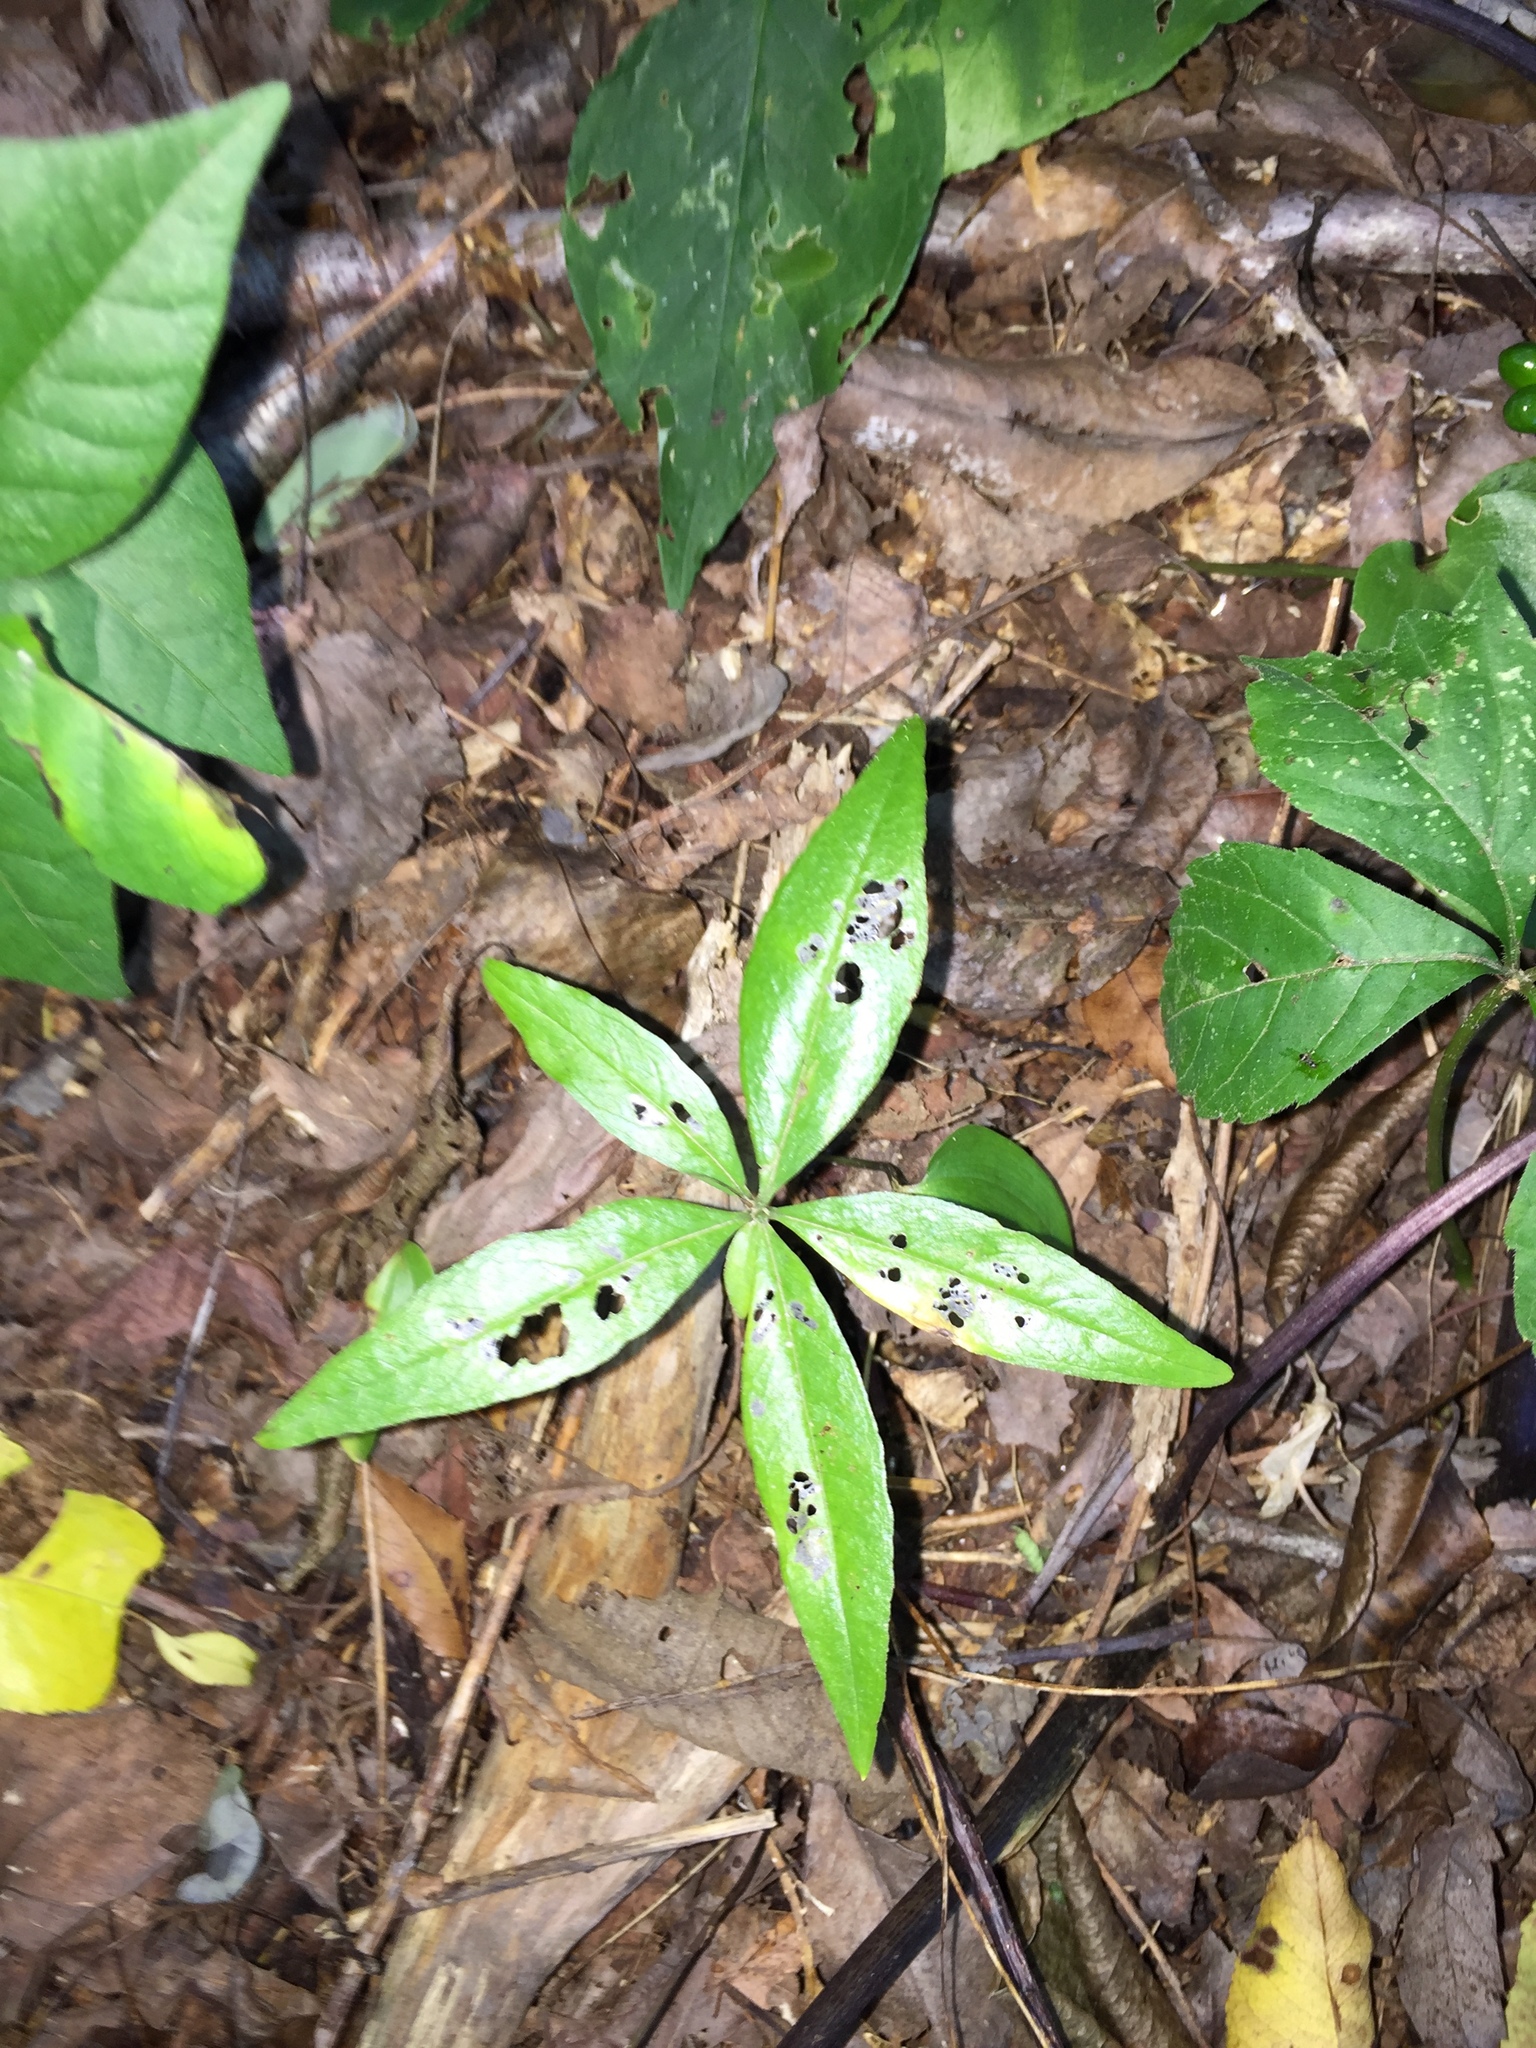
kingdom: Plantae
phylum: Tracheophyta
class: Magnoliopsida
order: Ericales
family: Primulaceae
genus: Lysimachia
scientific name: Lysimachia borealis
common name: American starflower
